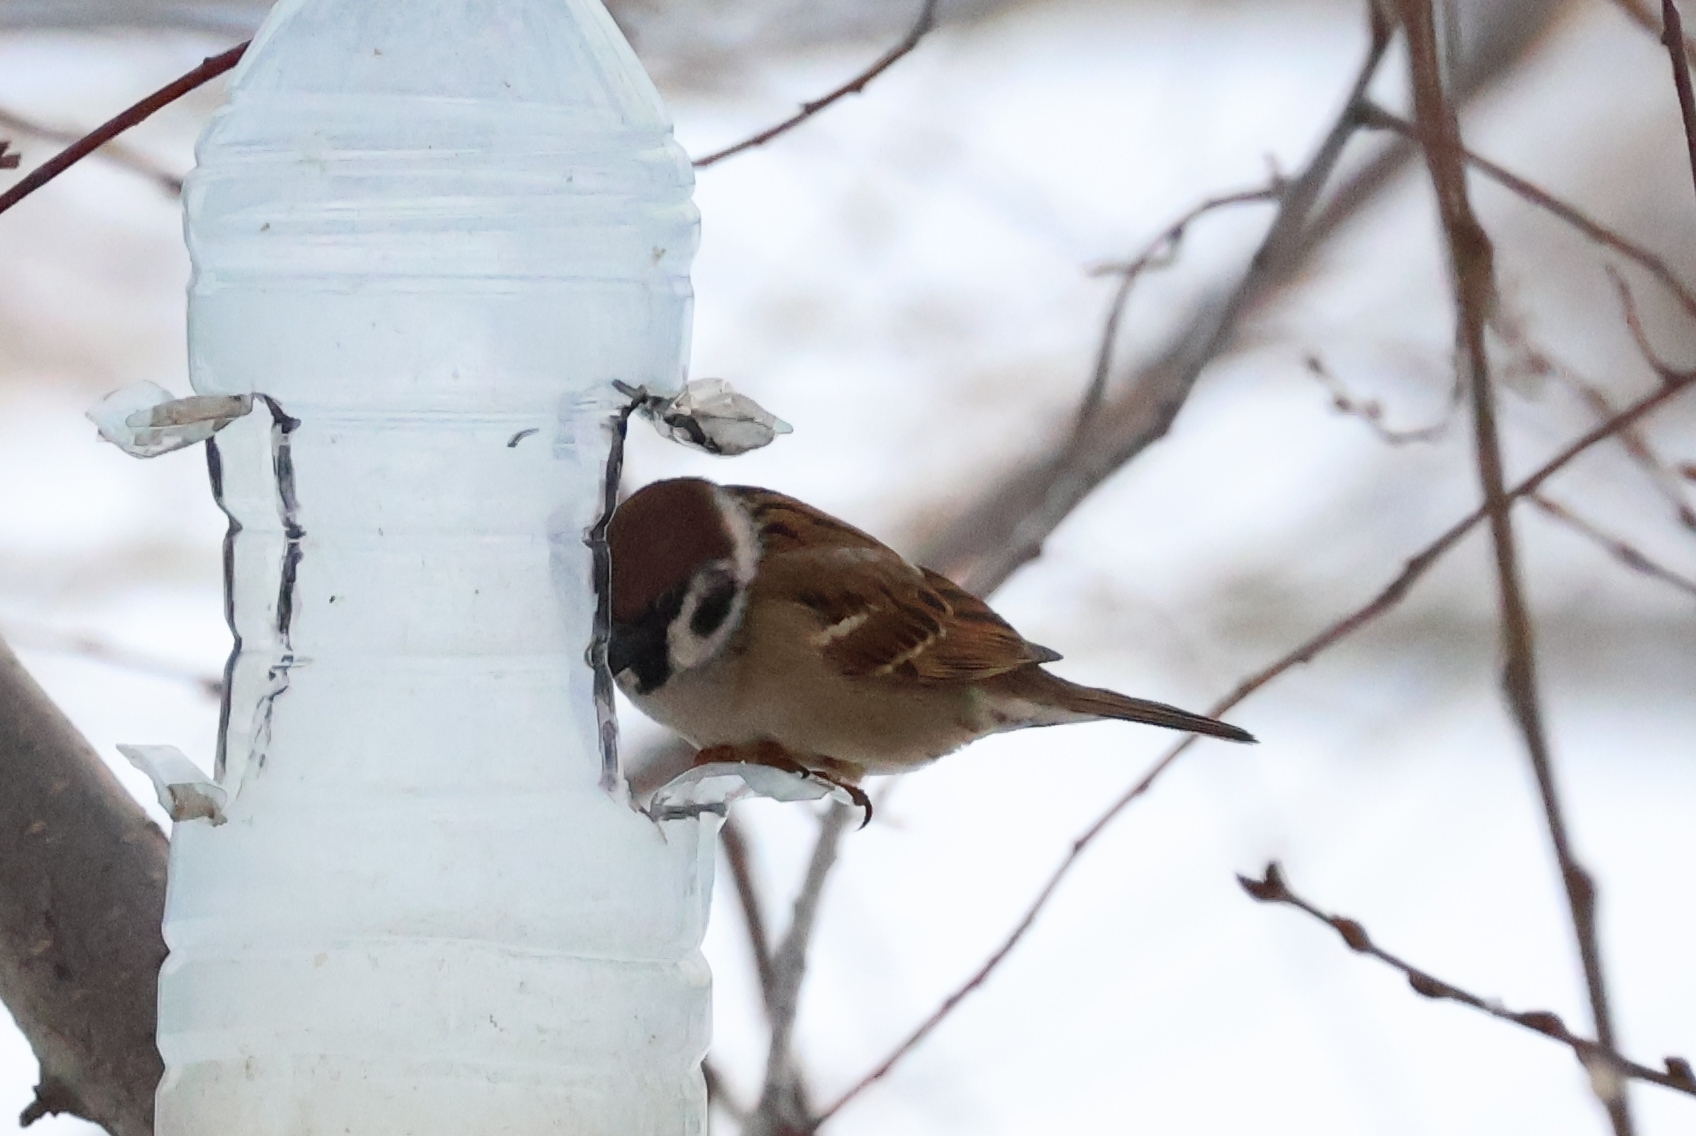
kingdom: Animalia
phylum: Chordata
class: Aves
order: Passeriformes
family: Passeridae
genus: Passer
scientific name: Passer montanus
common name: Eurasian tree sparrow
